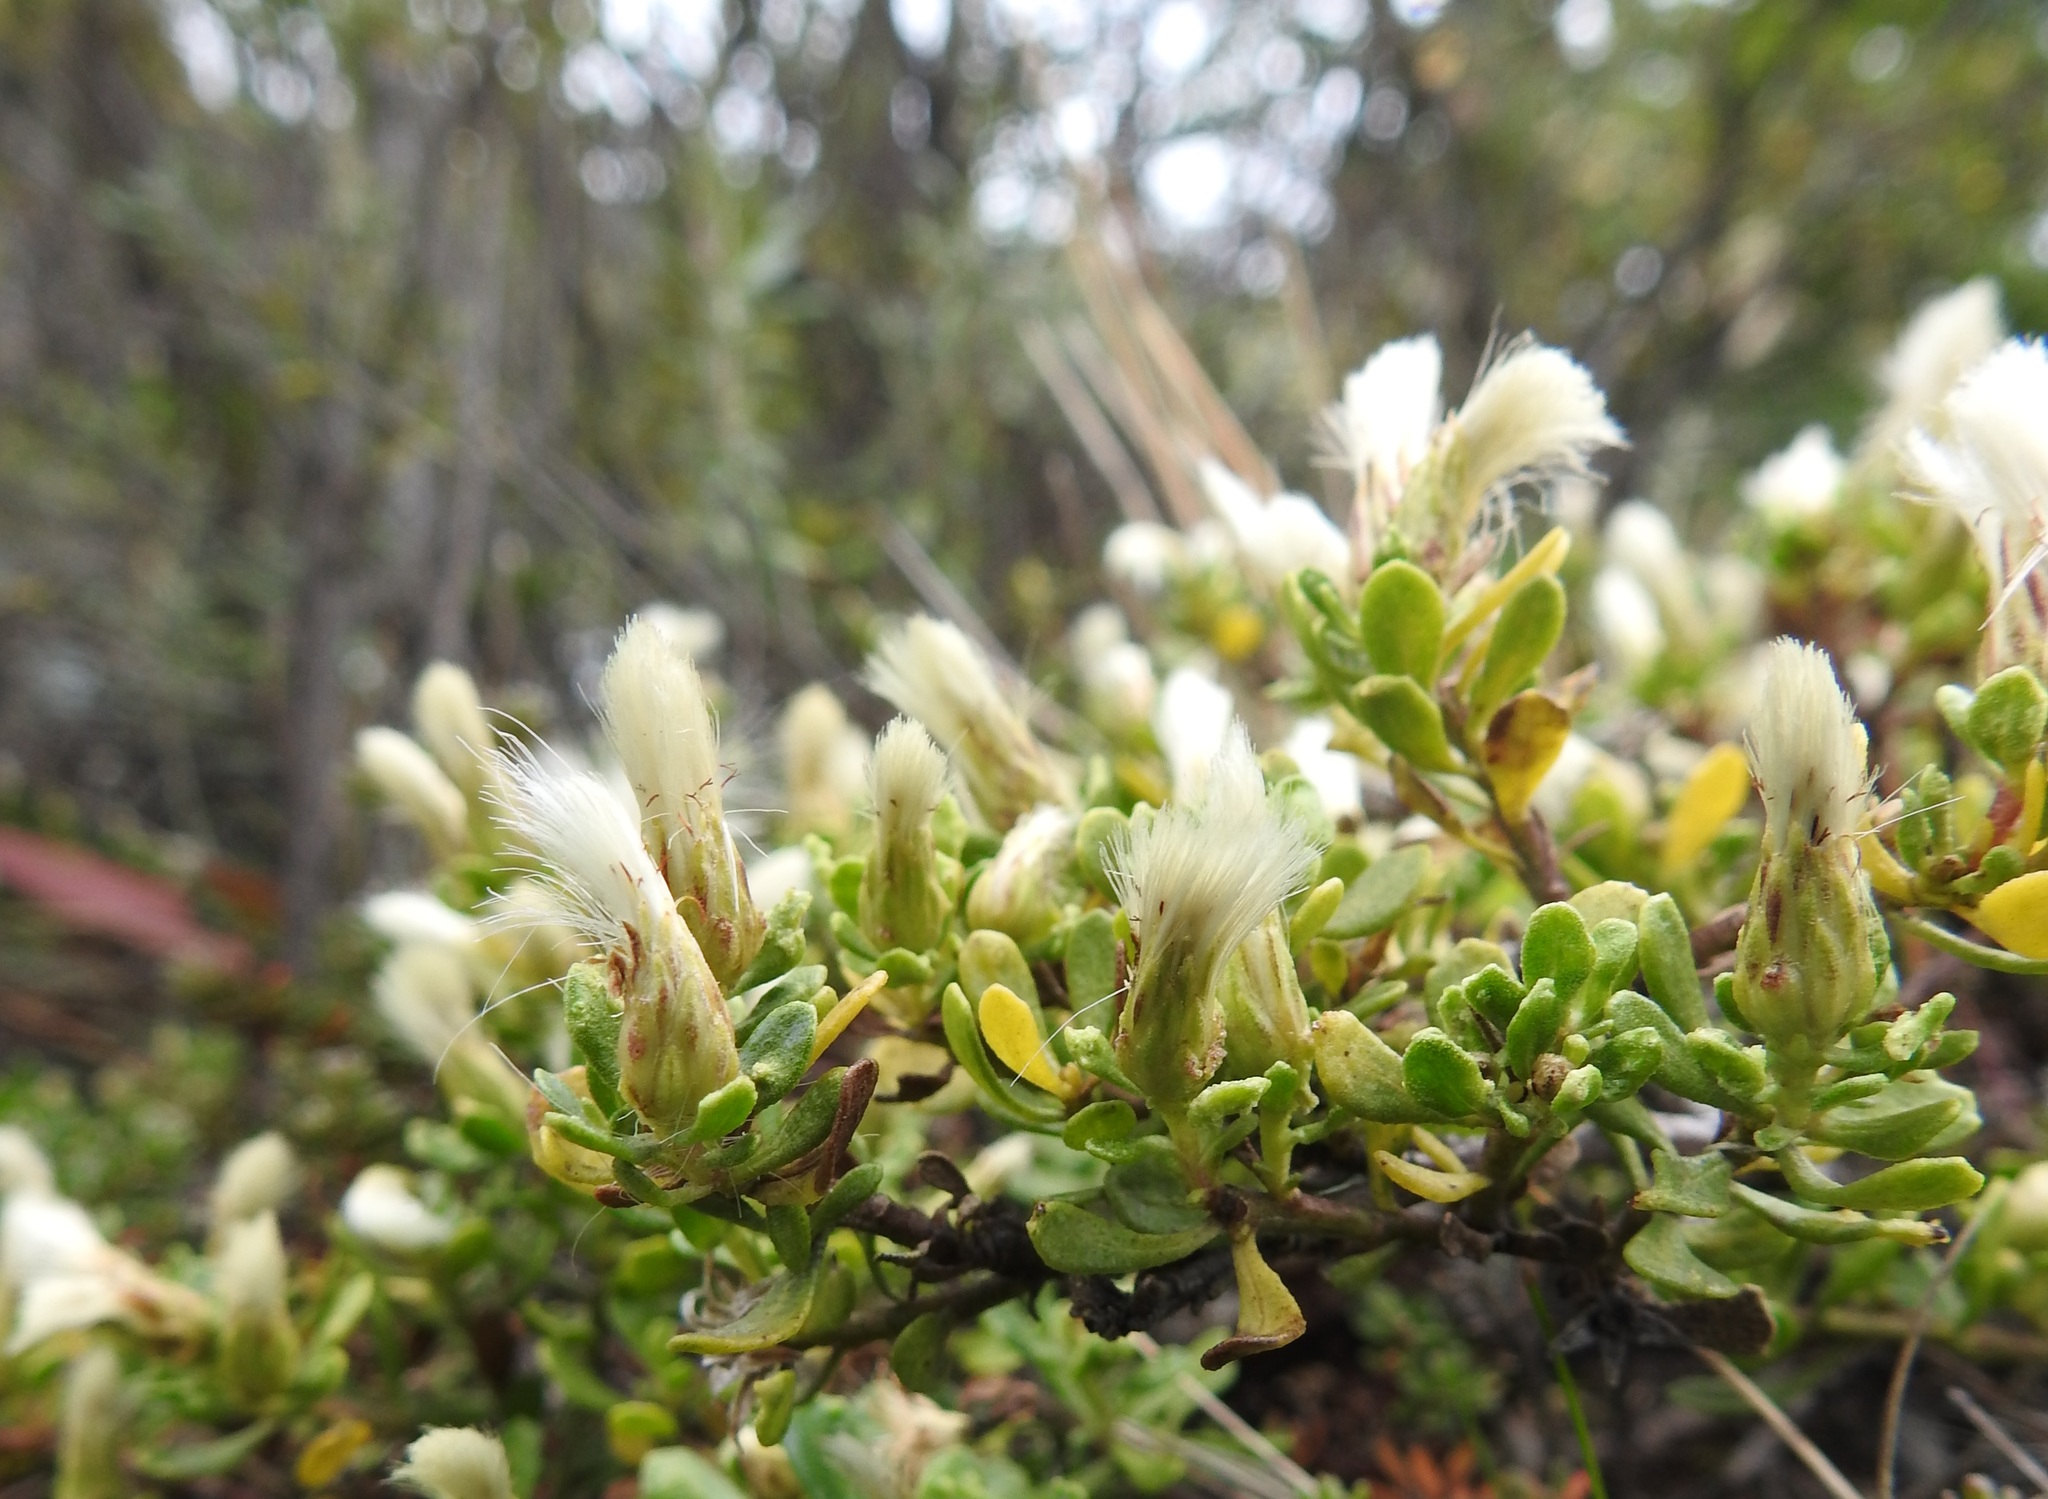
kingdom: Plantae
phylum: Tracheophyta
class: Magnoliopsida
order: Asterales
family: Asteraceae
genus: Baccharis
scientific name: Baccharis magellanica
